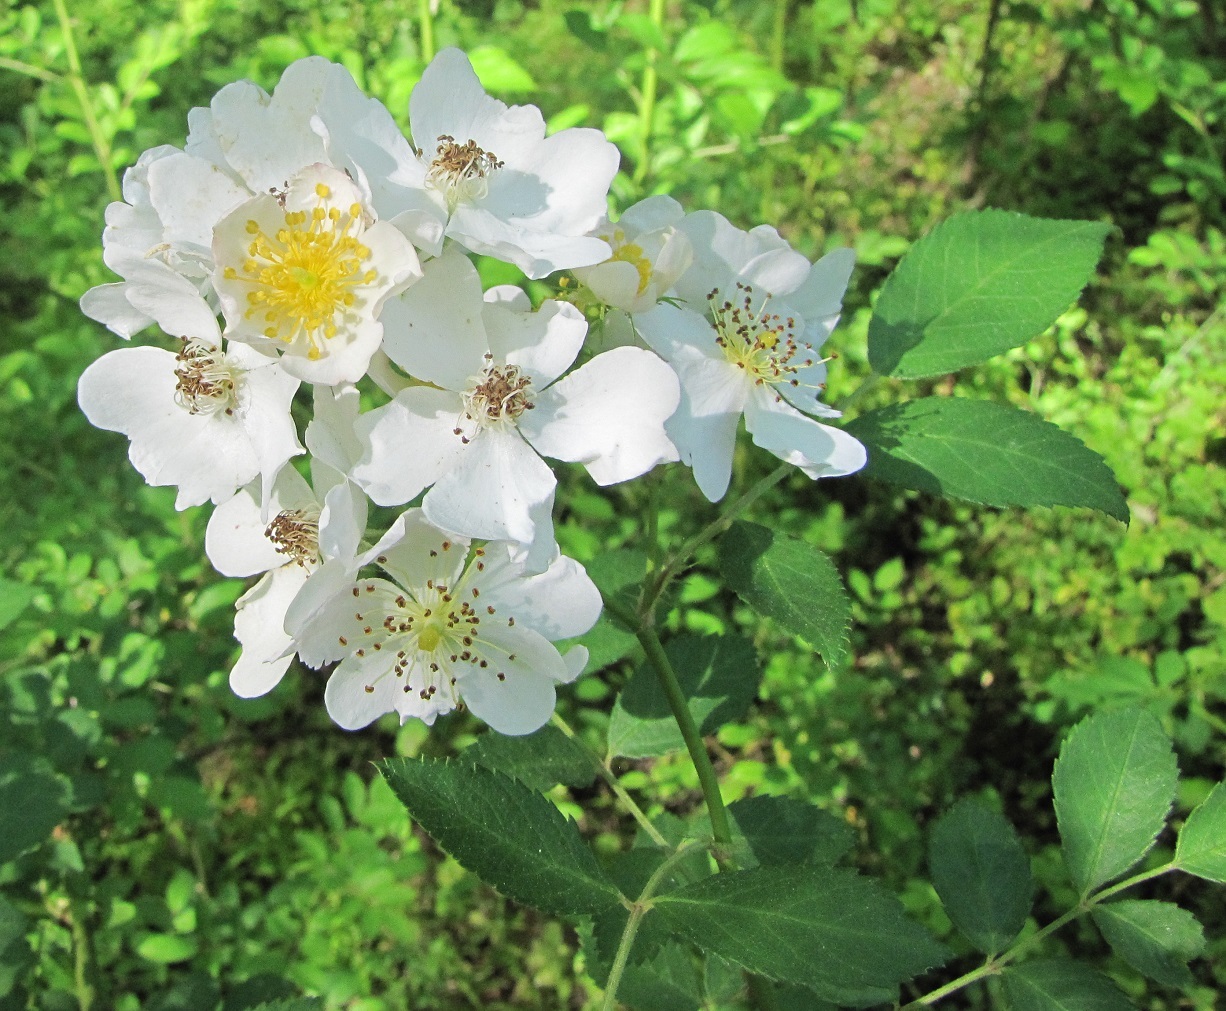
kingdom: Plantae
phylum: Tracheophyta
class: Magnoliopsida
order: Rosales
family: Rosaceae
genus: Rosa
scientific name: Rosa multiflora
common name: Multiflora rose
